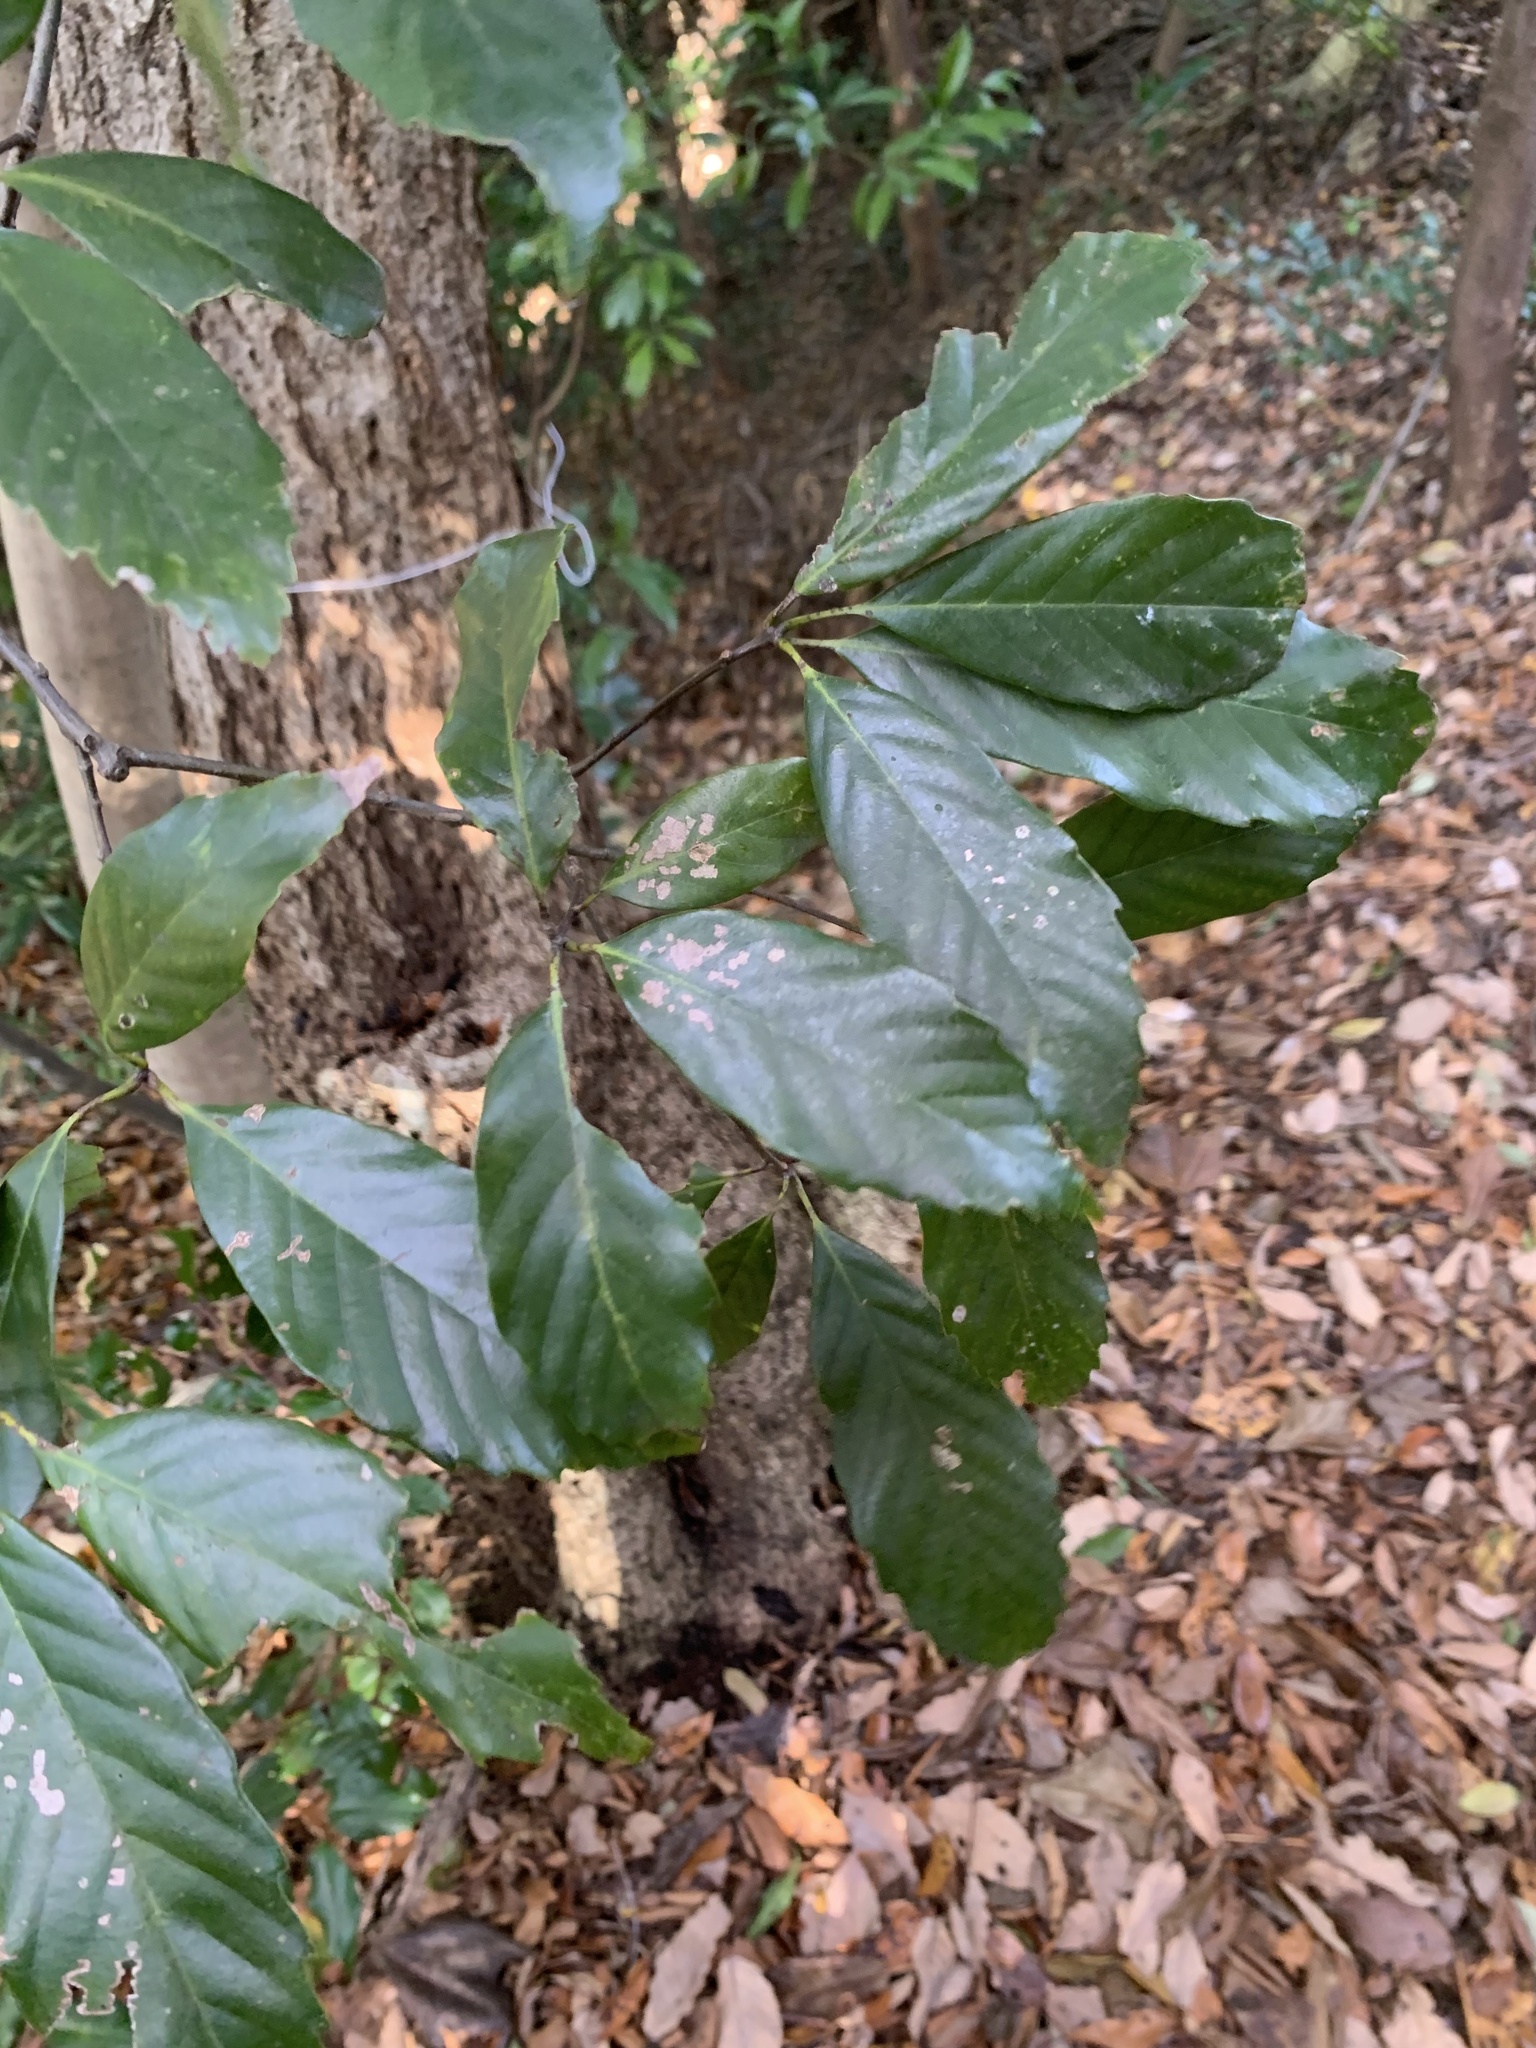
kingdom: Plantae
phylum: Tracheophyta
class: Magnoliopsida
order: Fagales
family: Fagaceae
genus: Quercus
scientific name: Quercus glauca
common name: Ring-cup oak
